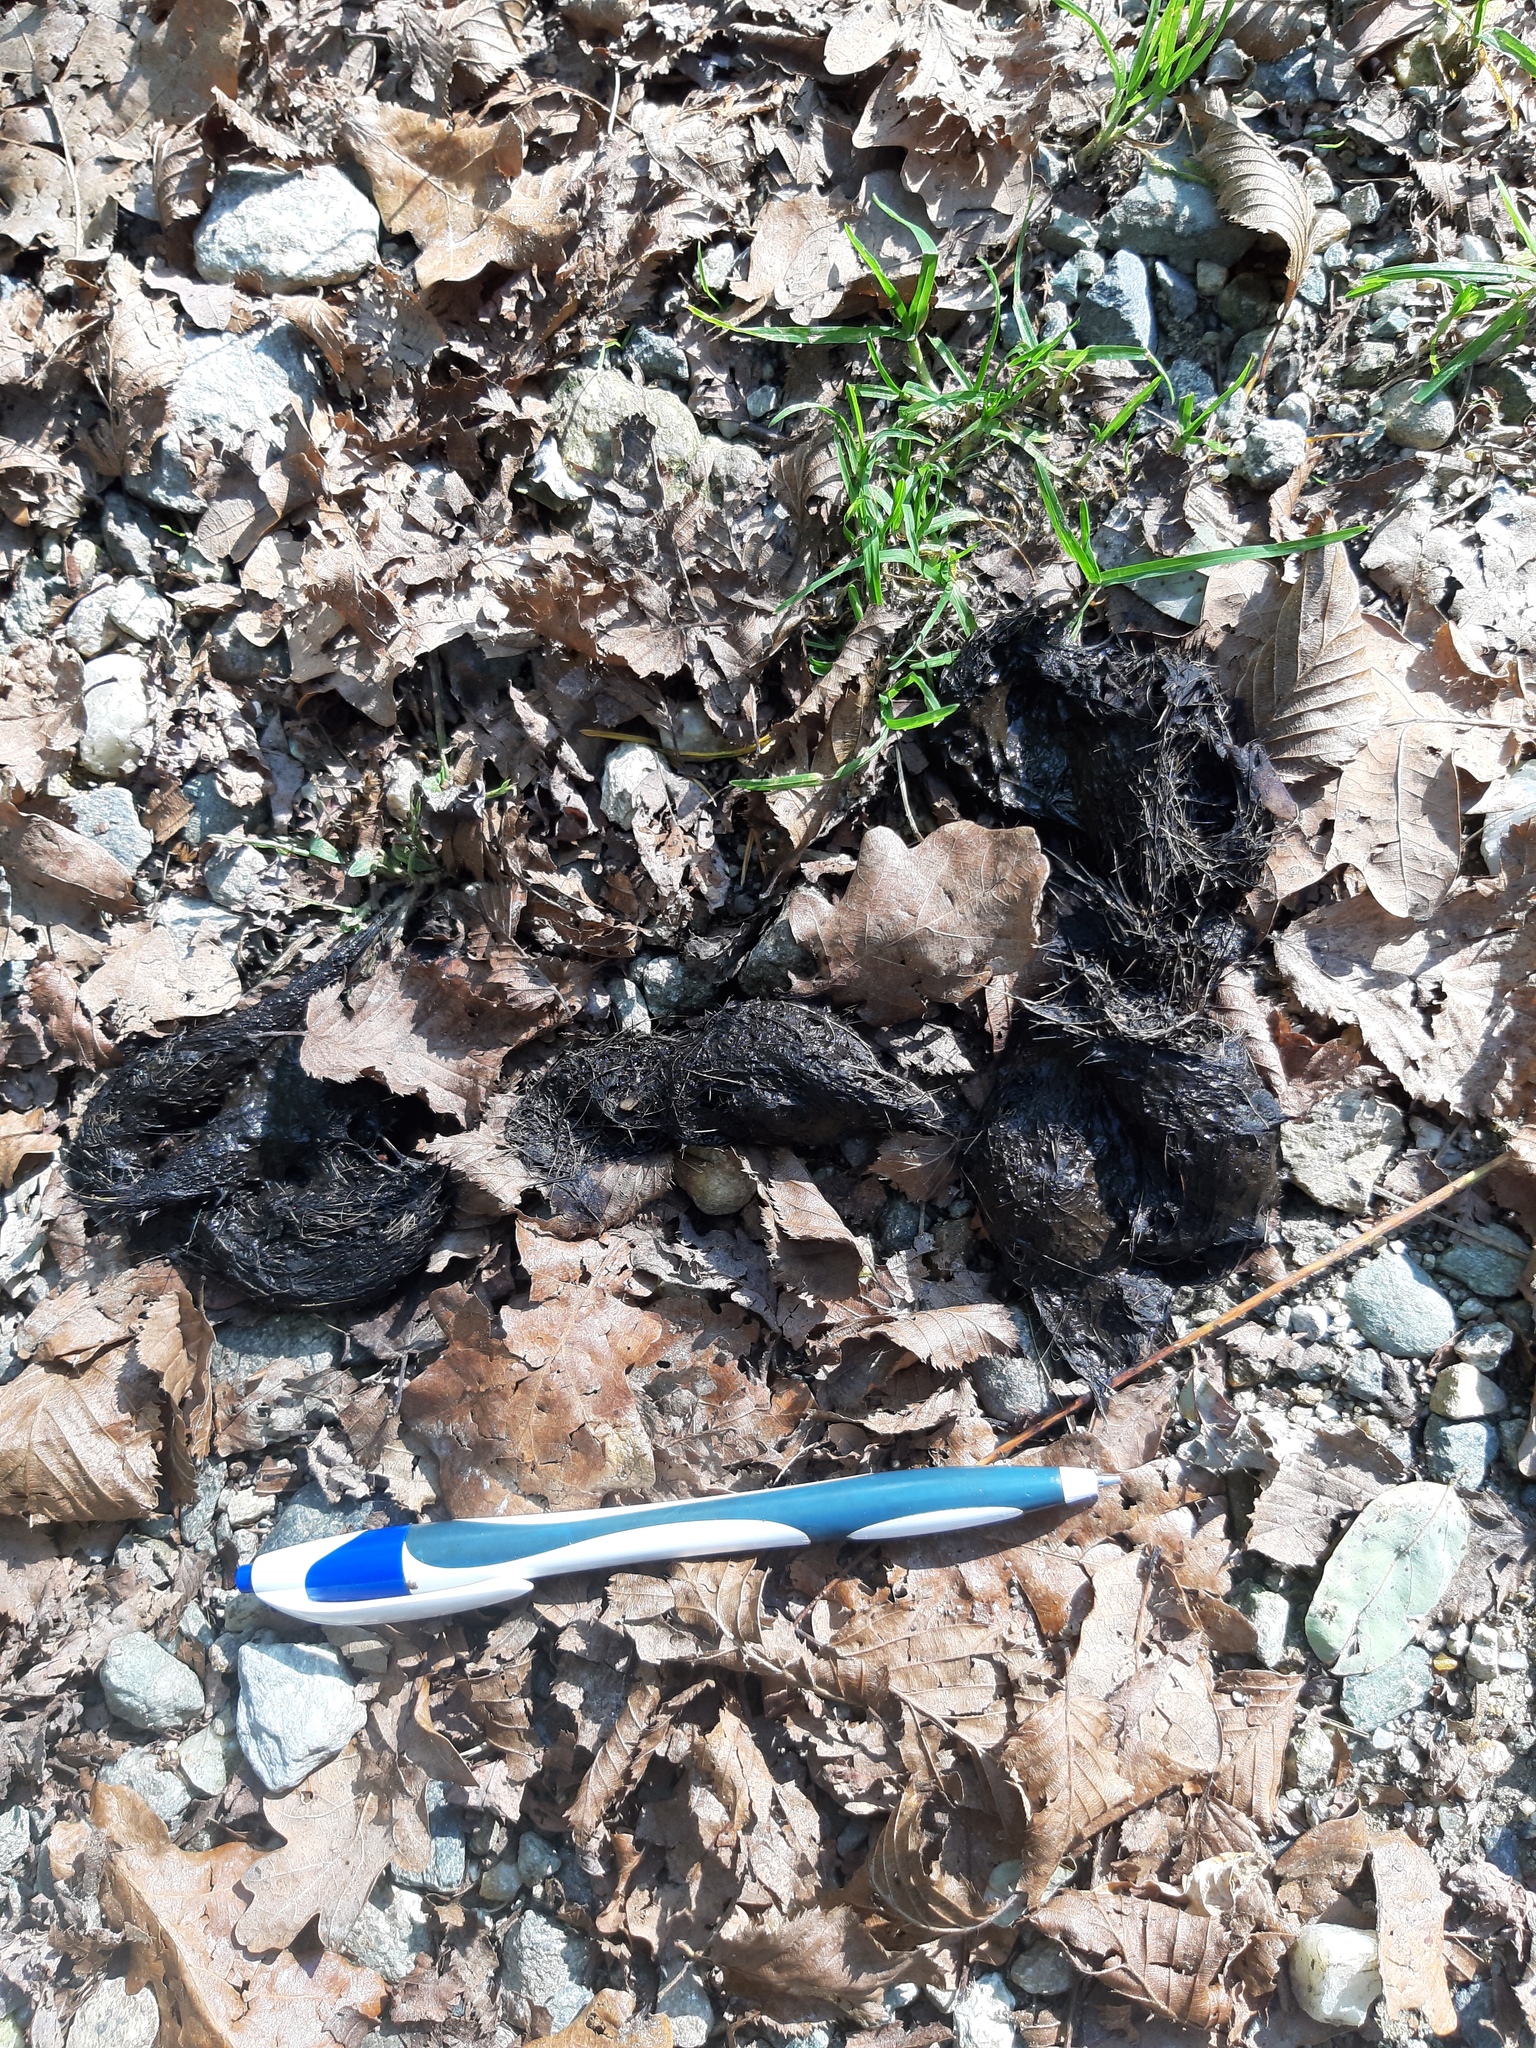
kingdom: Animalia
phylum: Chordata
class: Mammalia
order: Carnivora
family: Canidae
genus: Canis
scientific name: Canis lupus
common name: Gray wolf
